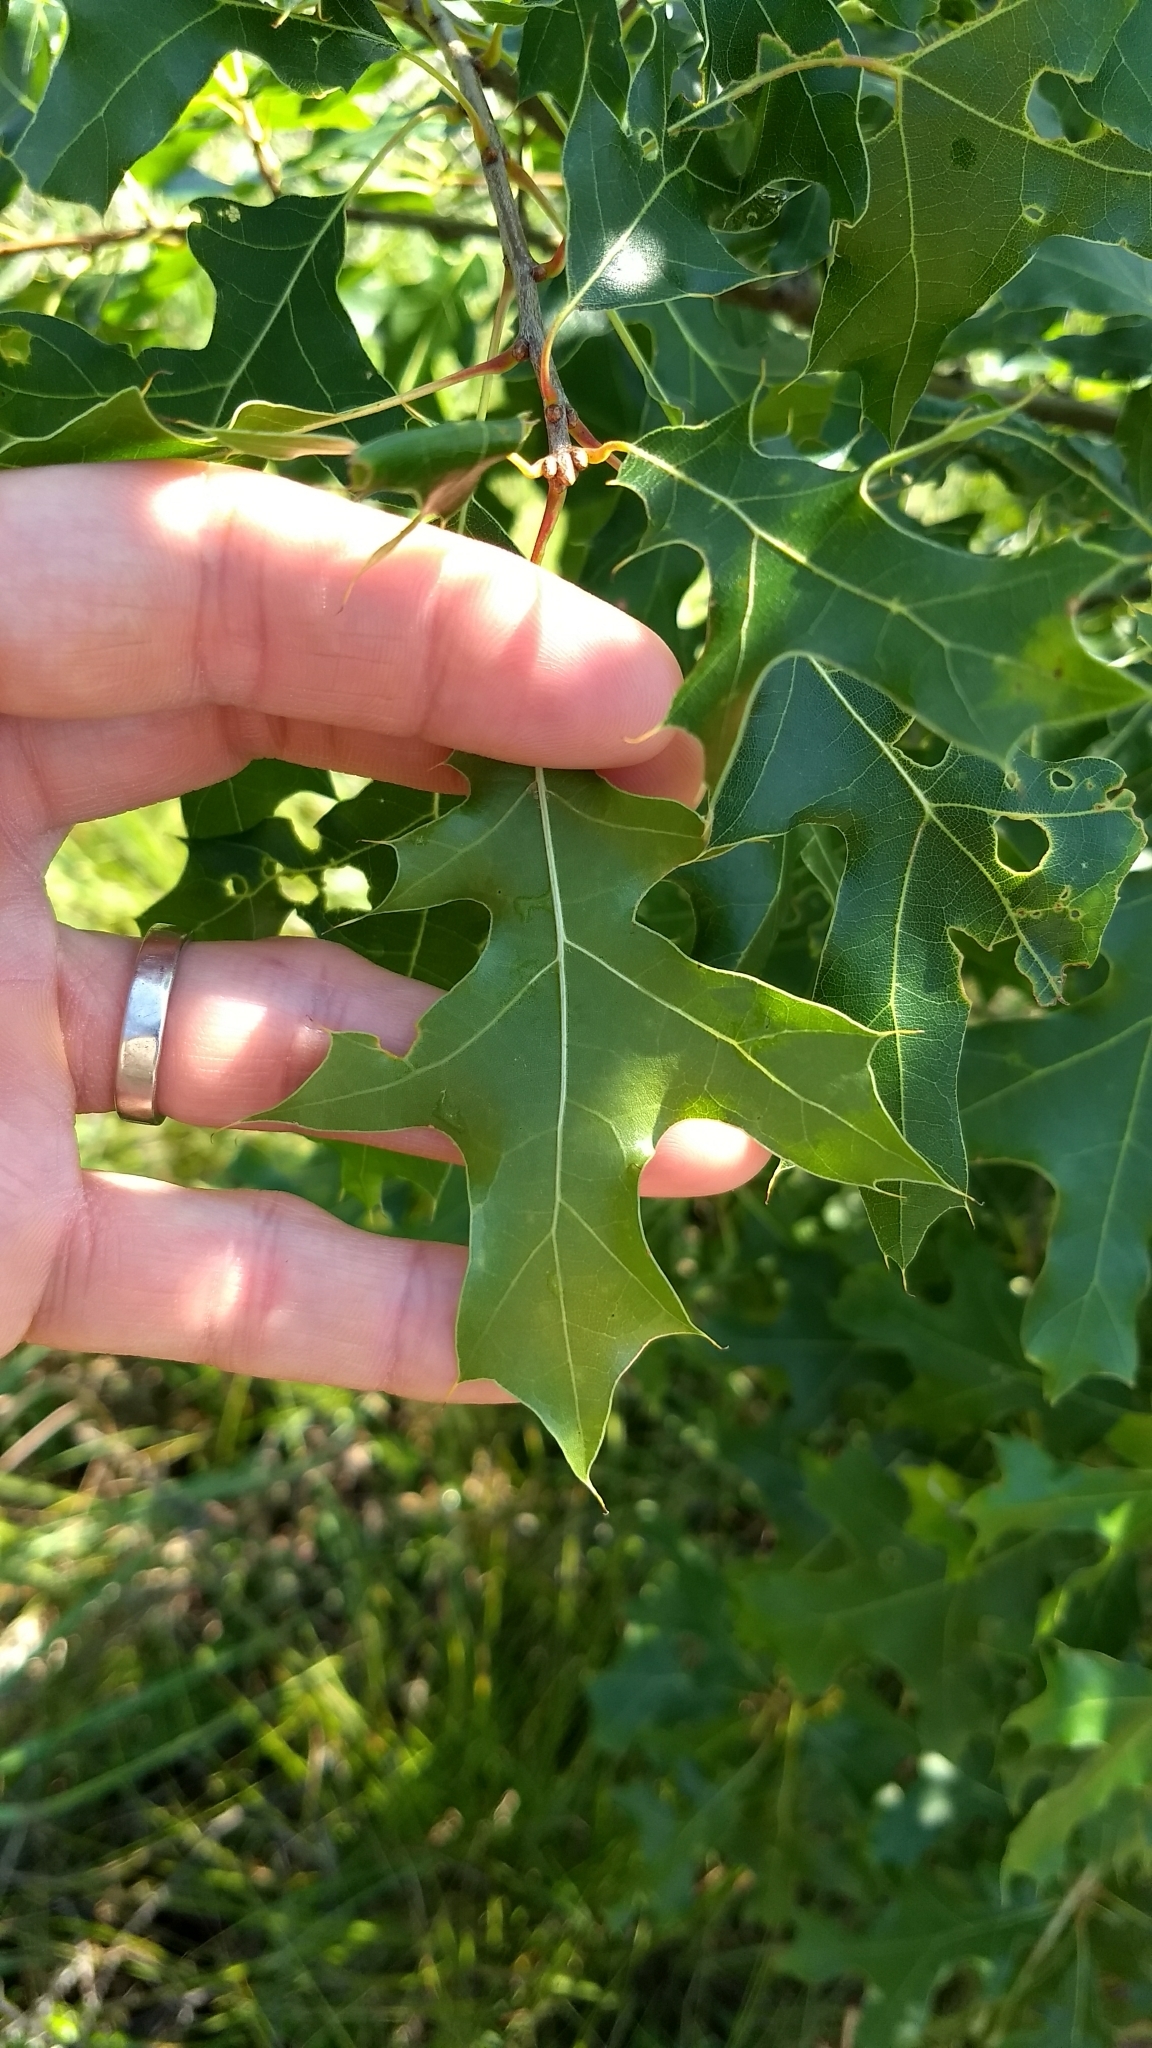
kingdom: Plantae
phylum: Tracheophyta
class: Magnoliopsida
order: Fagales
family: Fagaceae
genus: Quercus
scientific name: Quercus ellipsoidalis
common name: Hill's oak
